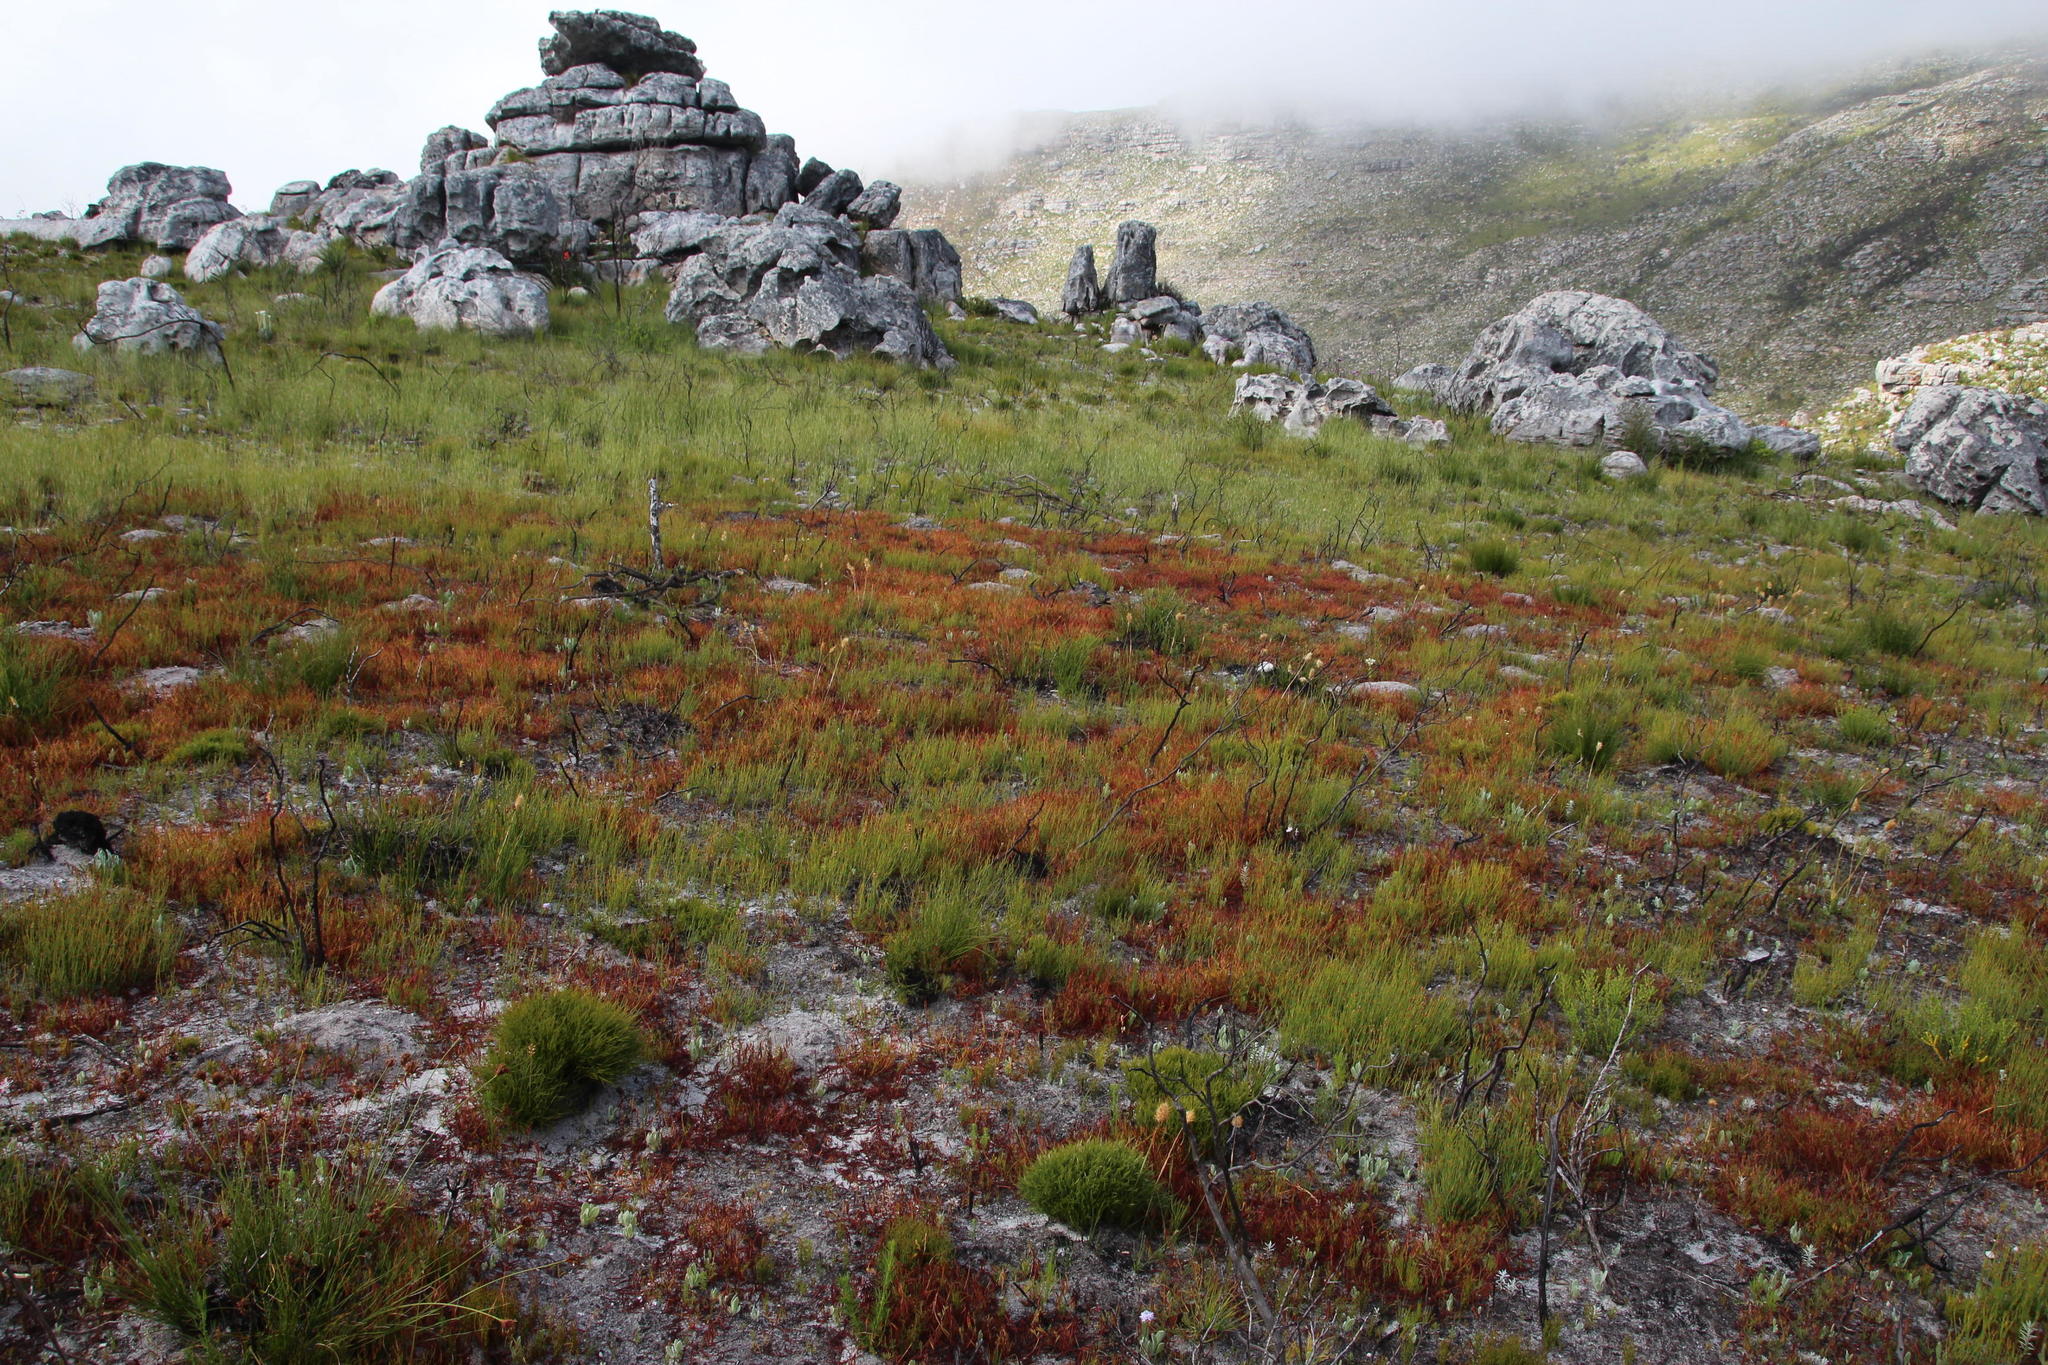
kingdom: Plantae
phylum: Tracheophyta
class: Magnoliopsida
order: Fabales
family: Fabaceae
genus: Indigofera
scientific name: Indigofera
